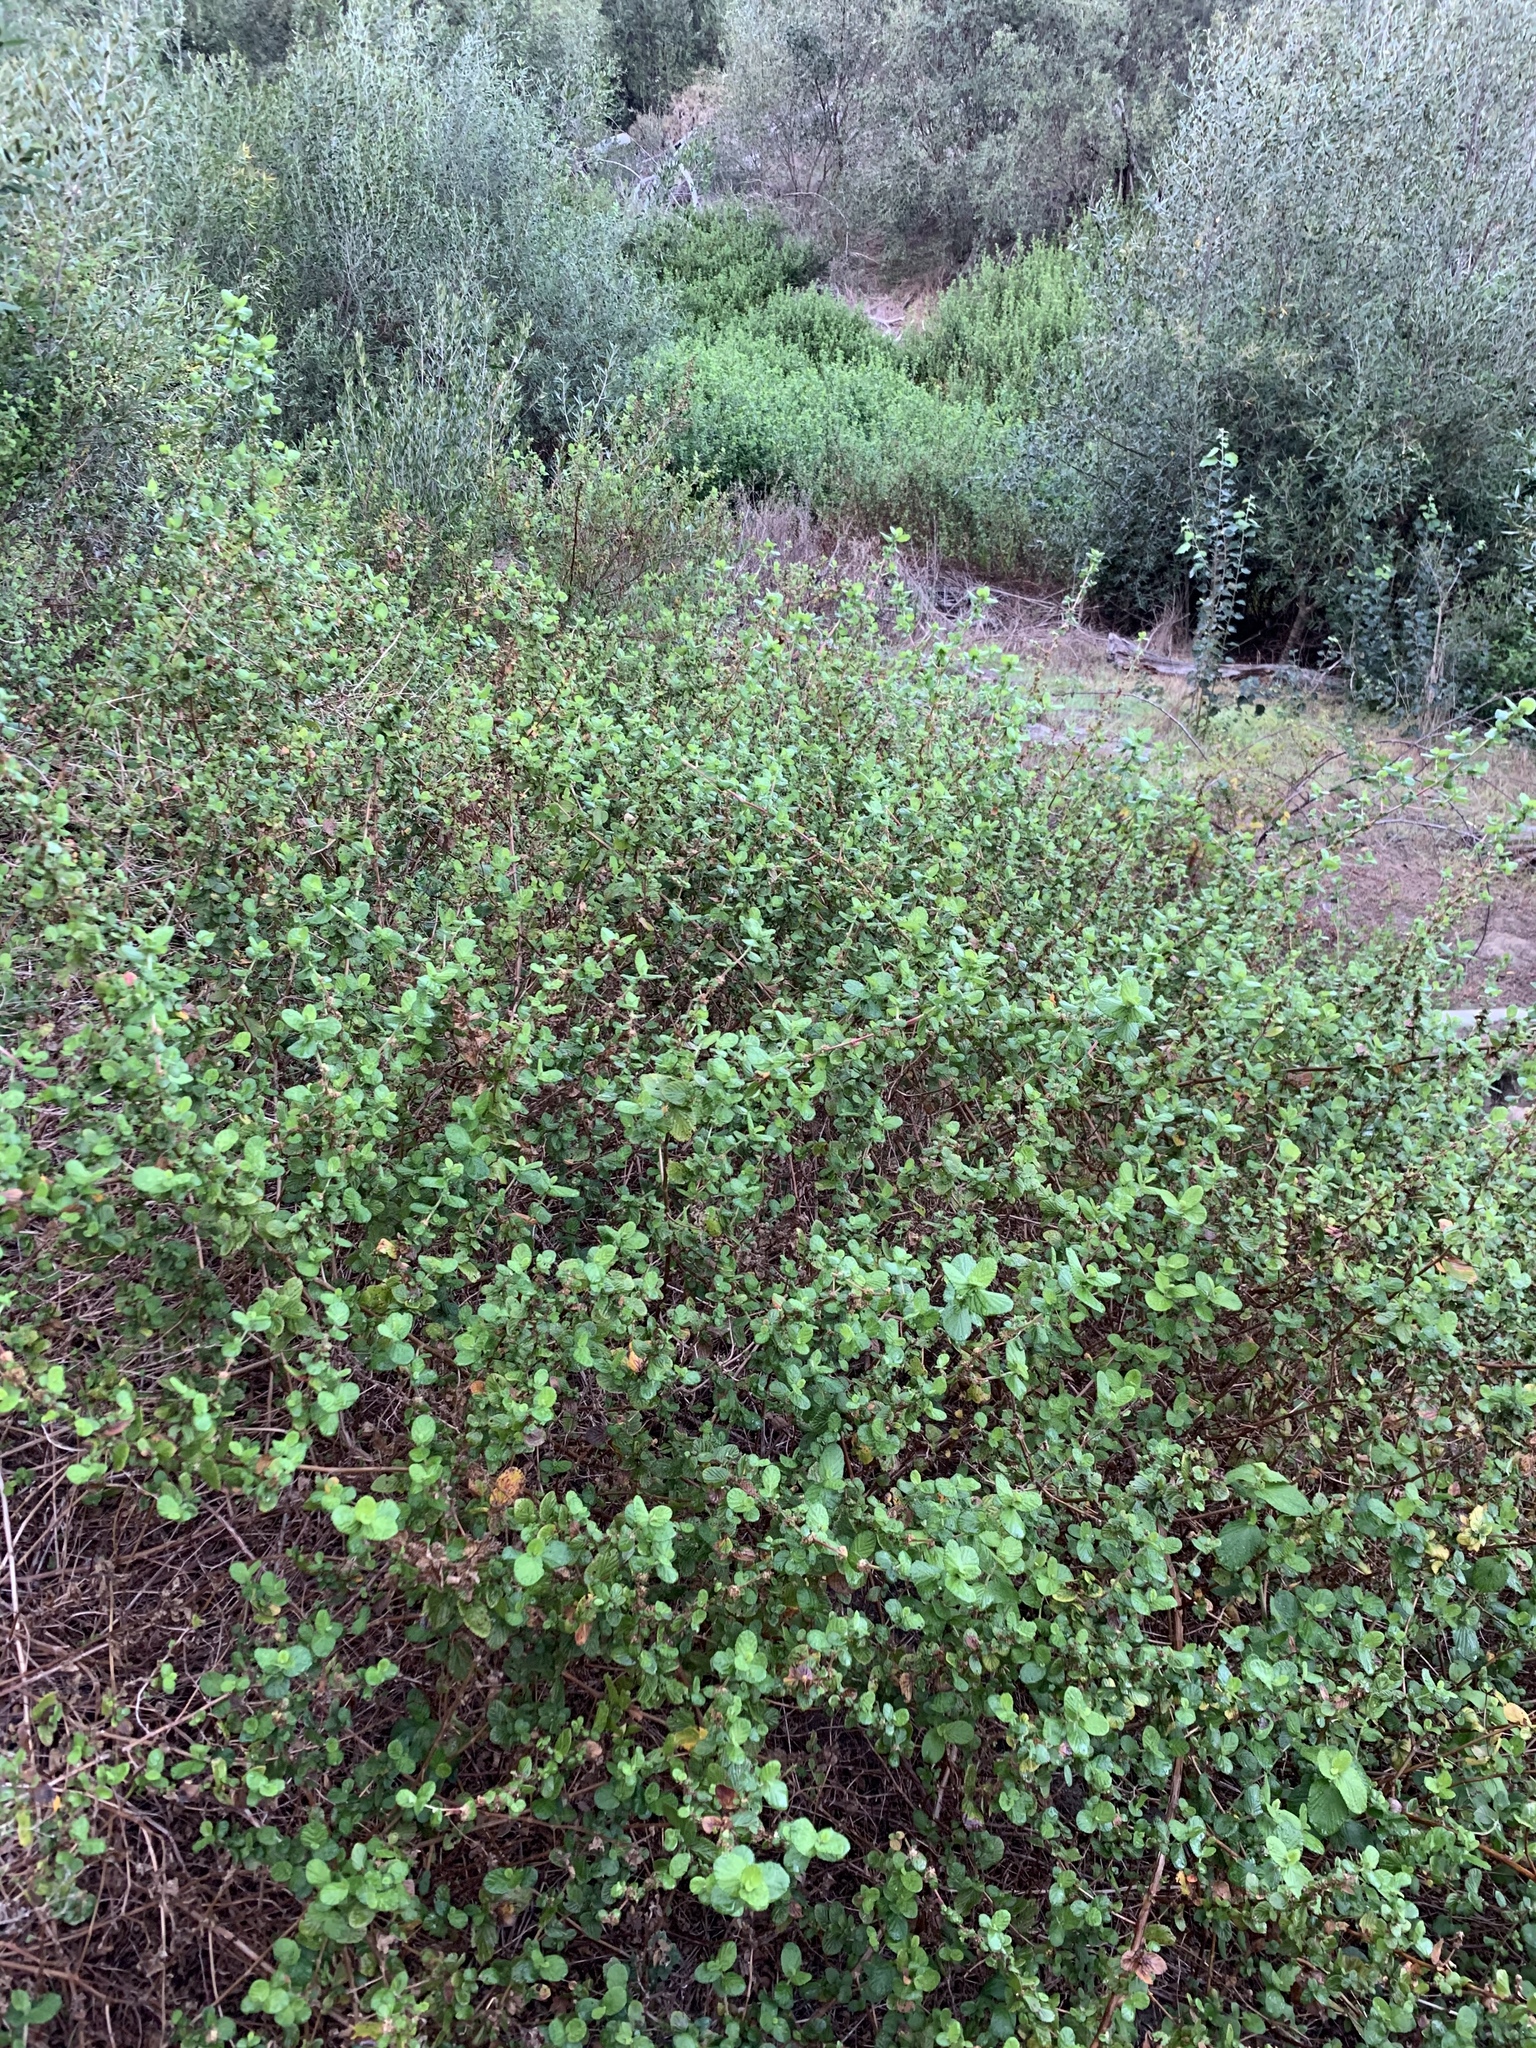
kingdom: Plantae
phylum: Tracheophyta
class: Magnoliopsida
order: Rosales
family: Rosaceae
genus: Cliffortia
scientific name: Cliffortia odorata
